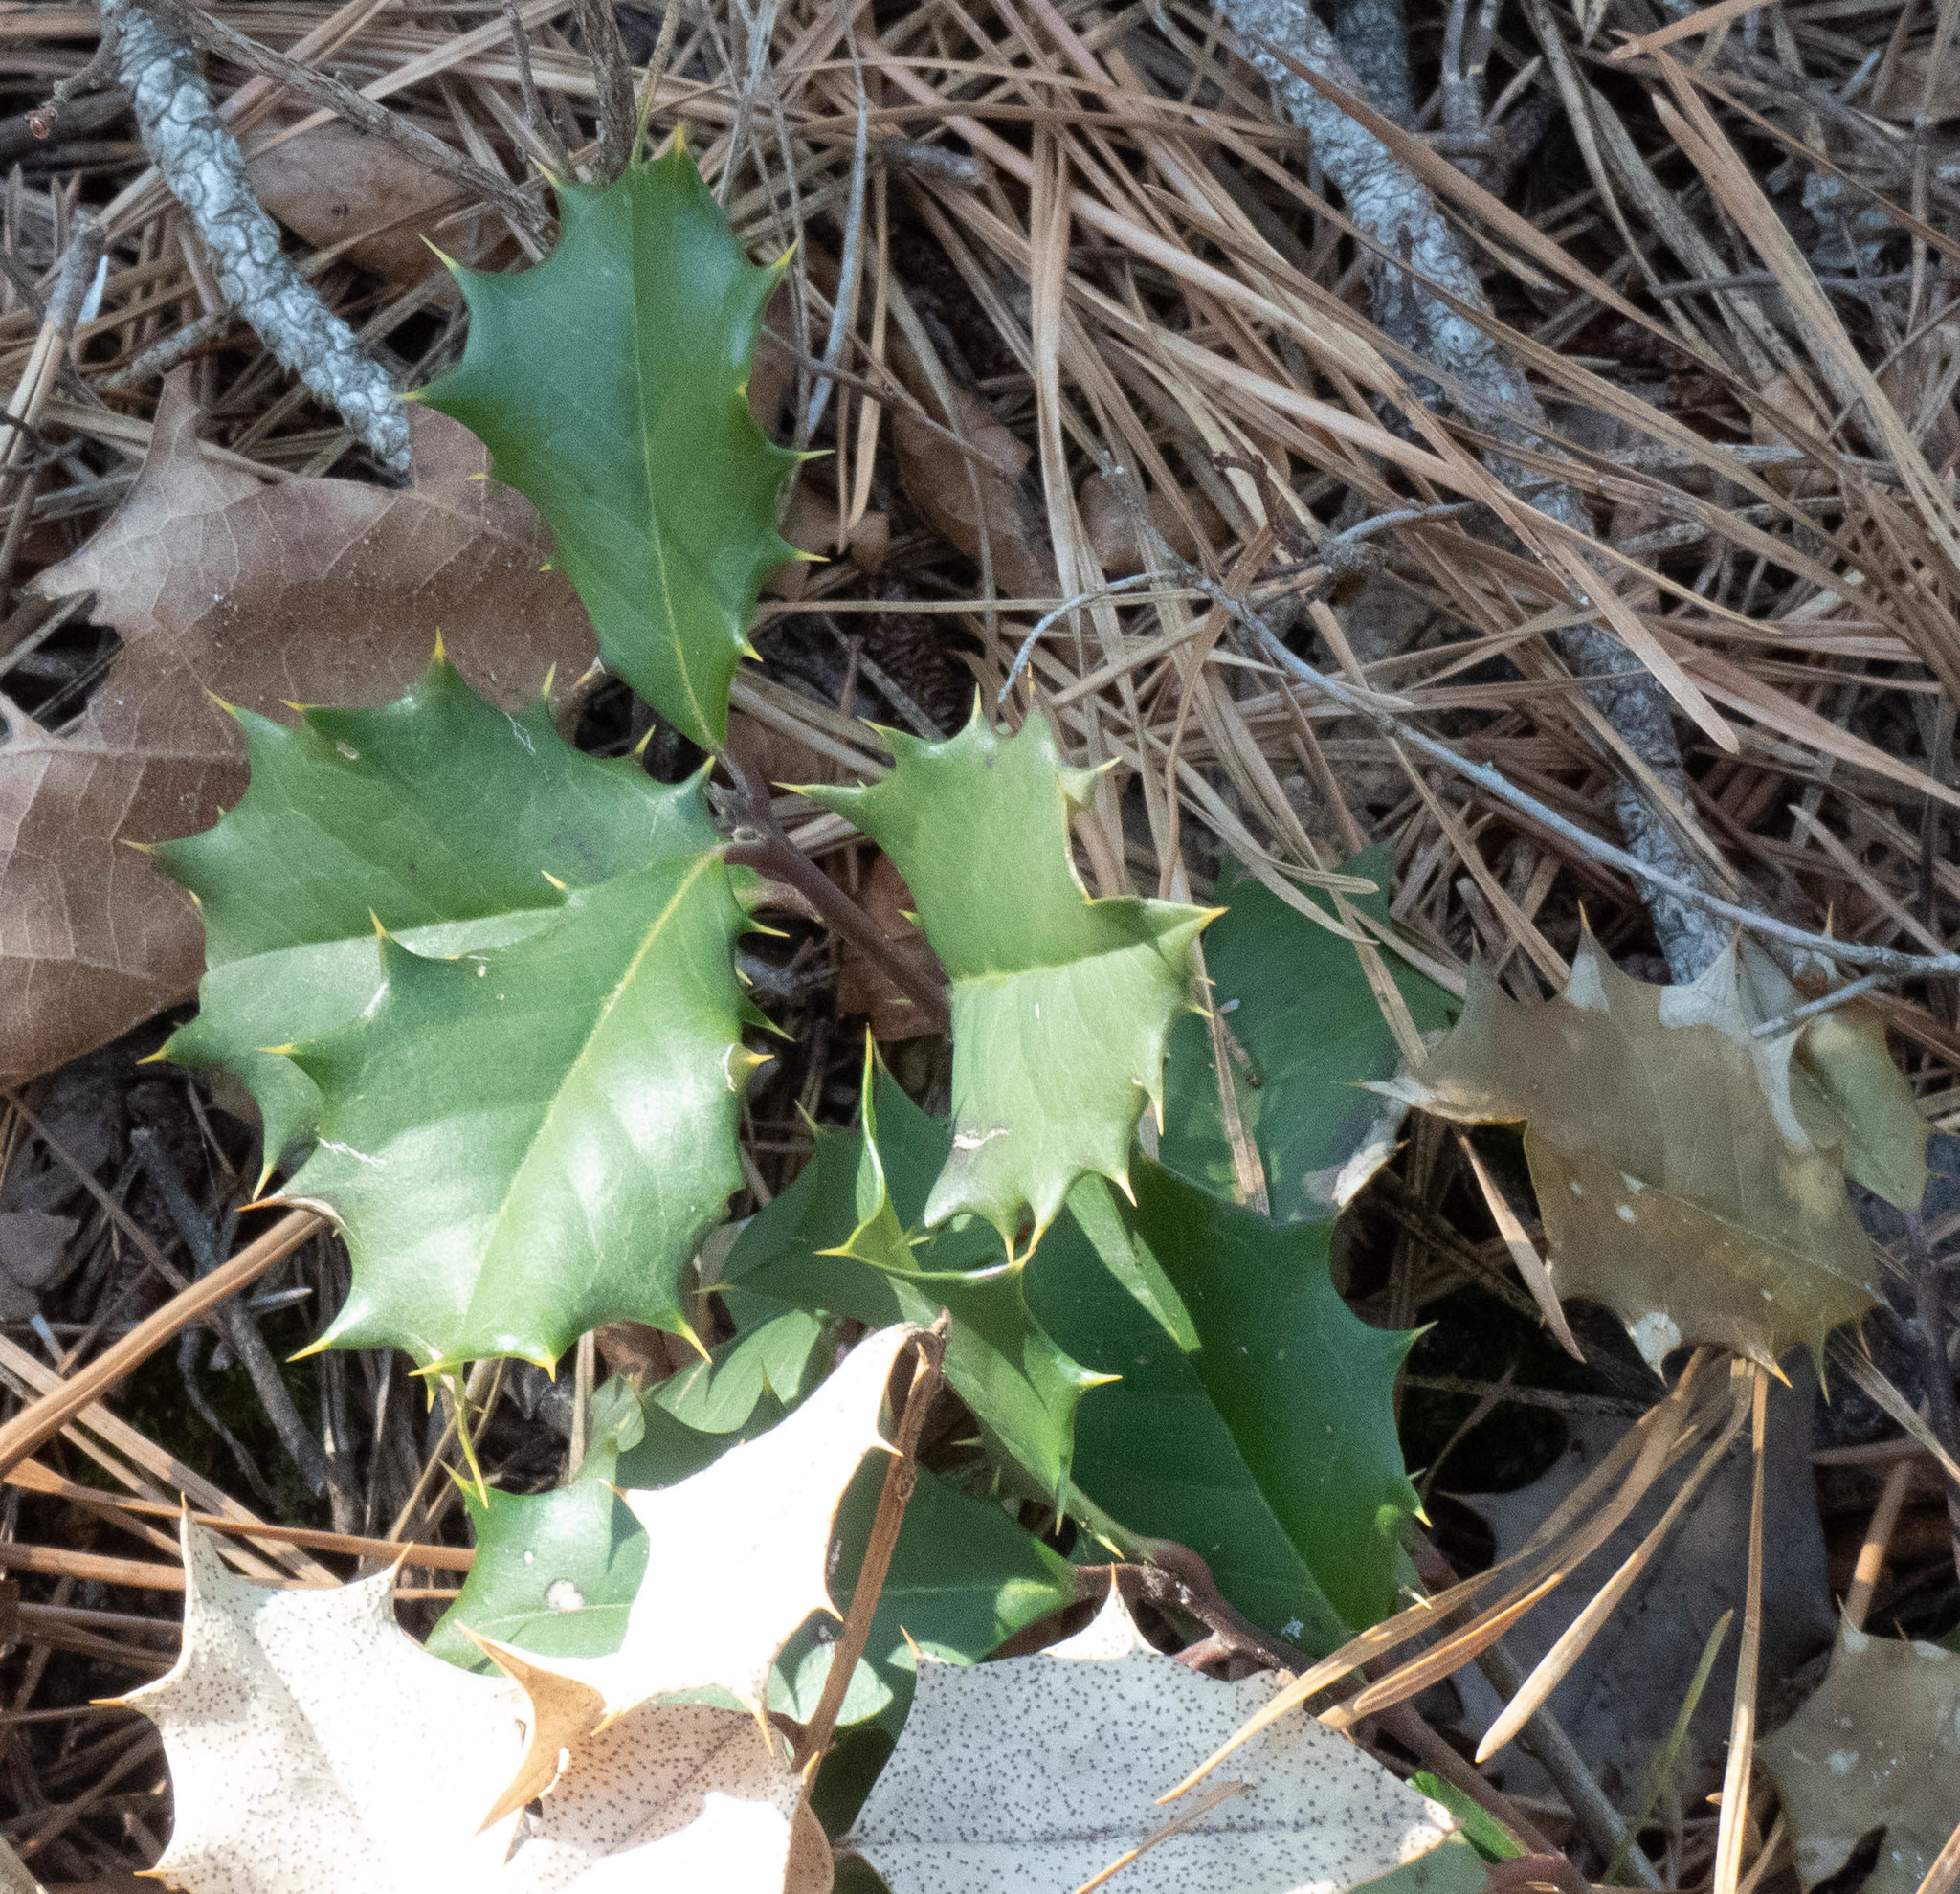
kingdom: Plantae
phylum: Tracheophyta
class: Magnoliopsida
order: Aquifoliales
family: Aquifoliaceae
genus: Ilex
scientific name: Ilex opaca
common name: American holly
